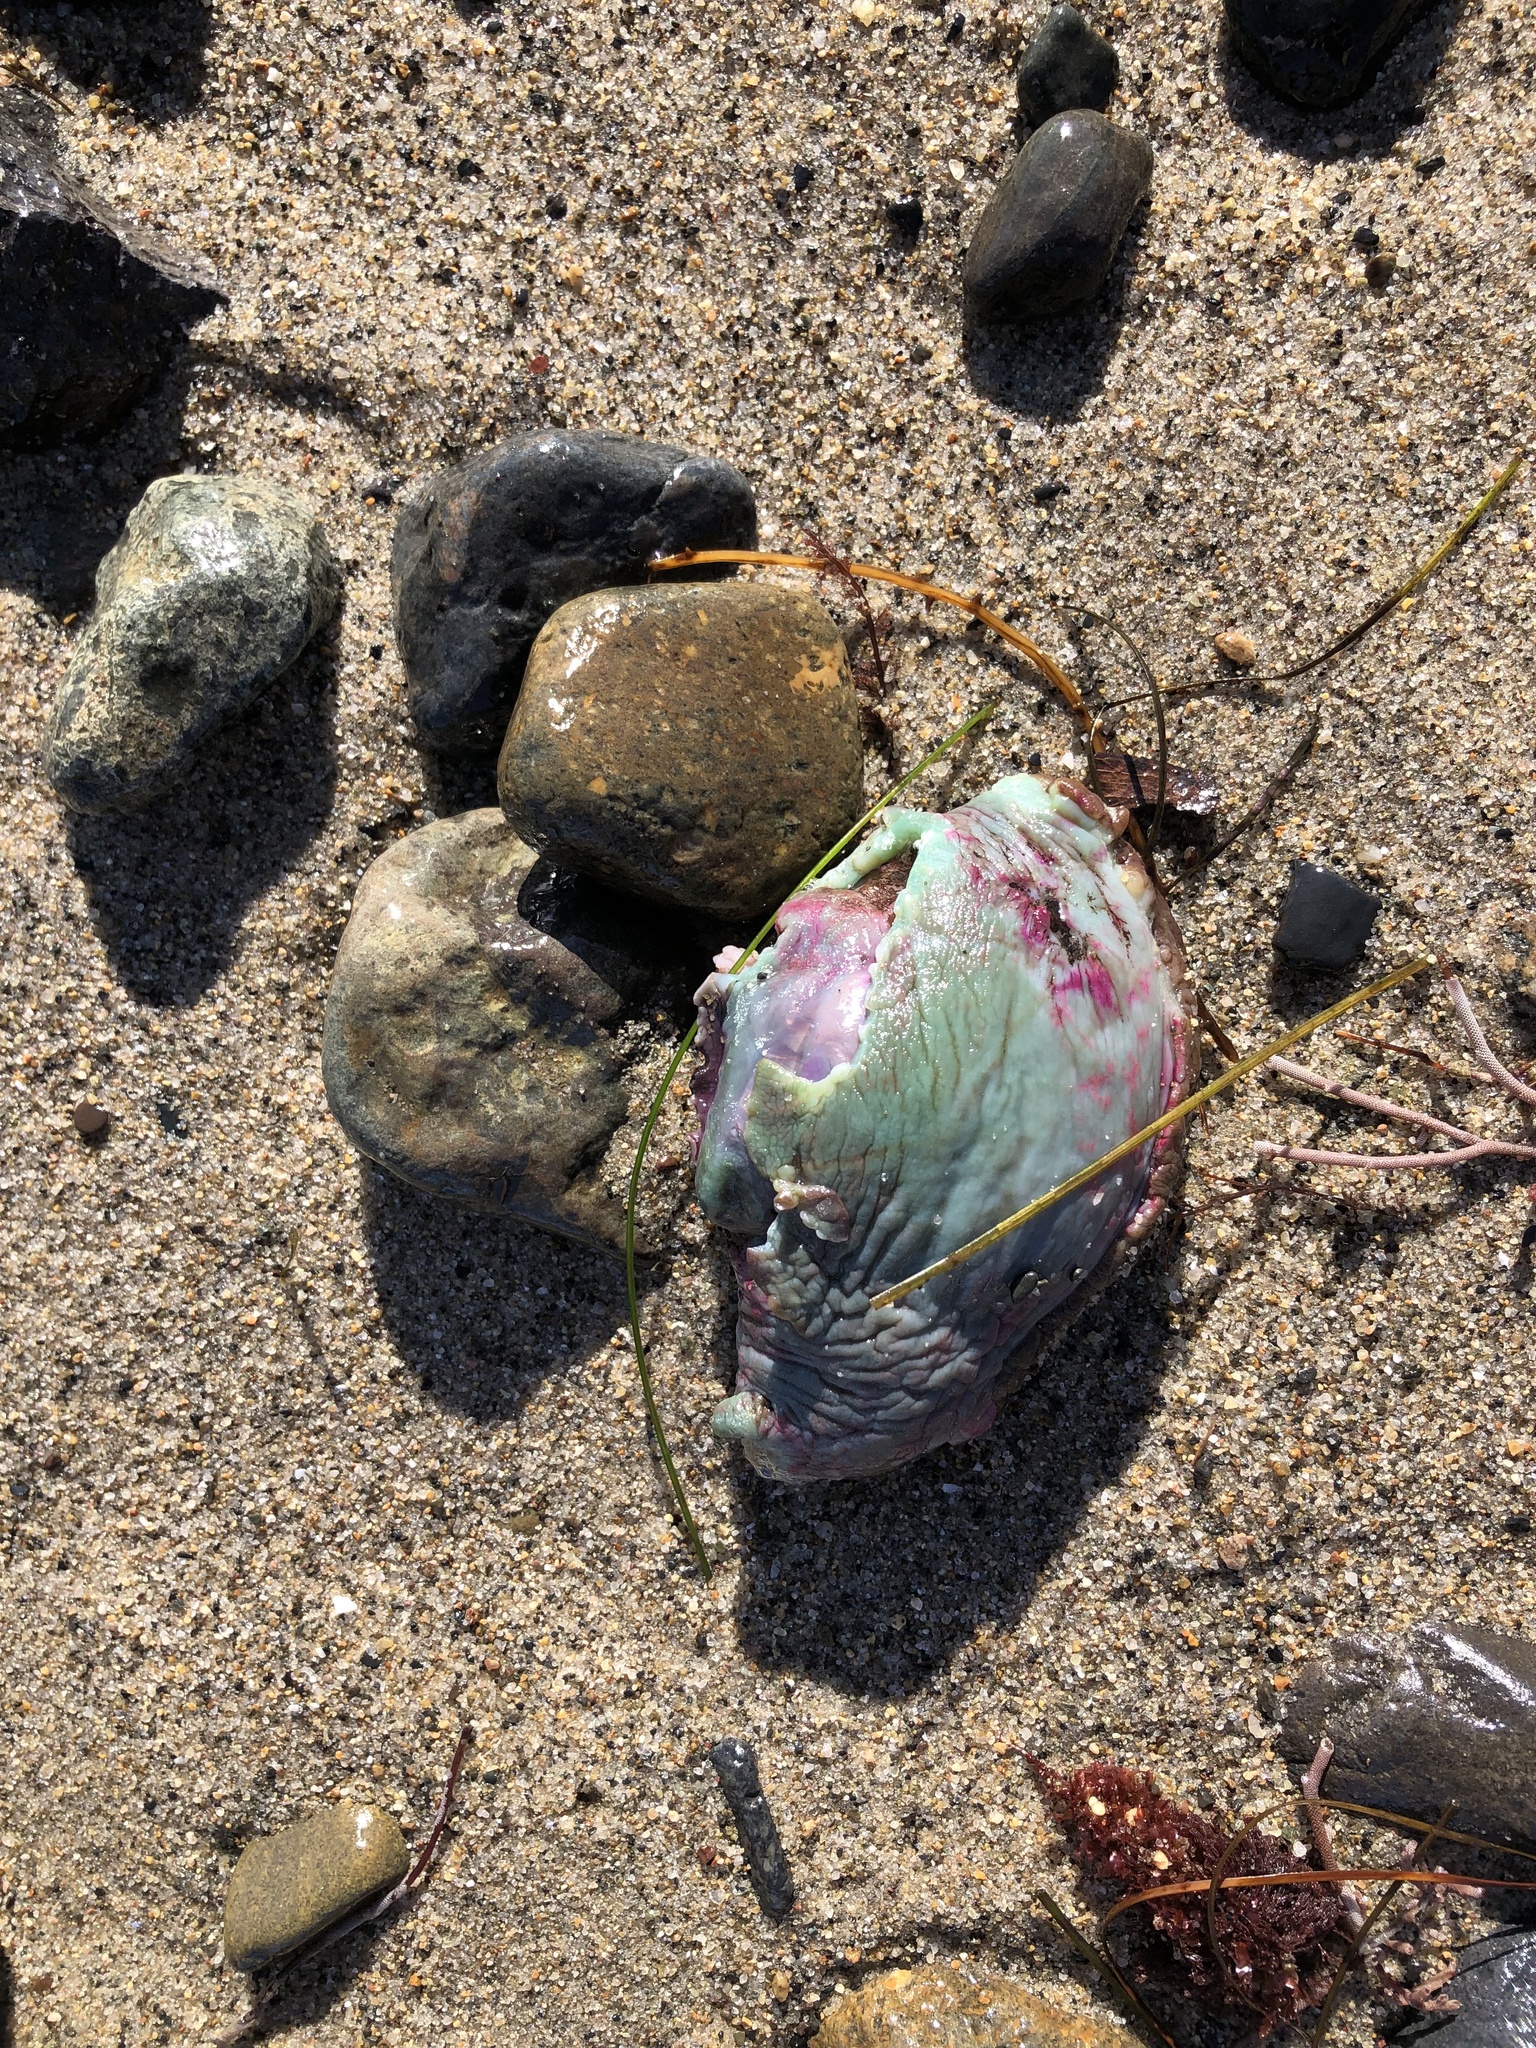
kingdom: Animalia
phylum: Mollusca
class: Gastropoda
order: Aplysiida
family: Aplysiidae
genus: Aplysia
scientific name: Aplysia californica
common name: California seahare
